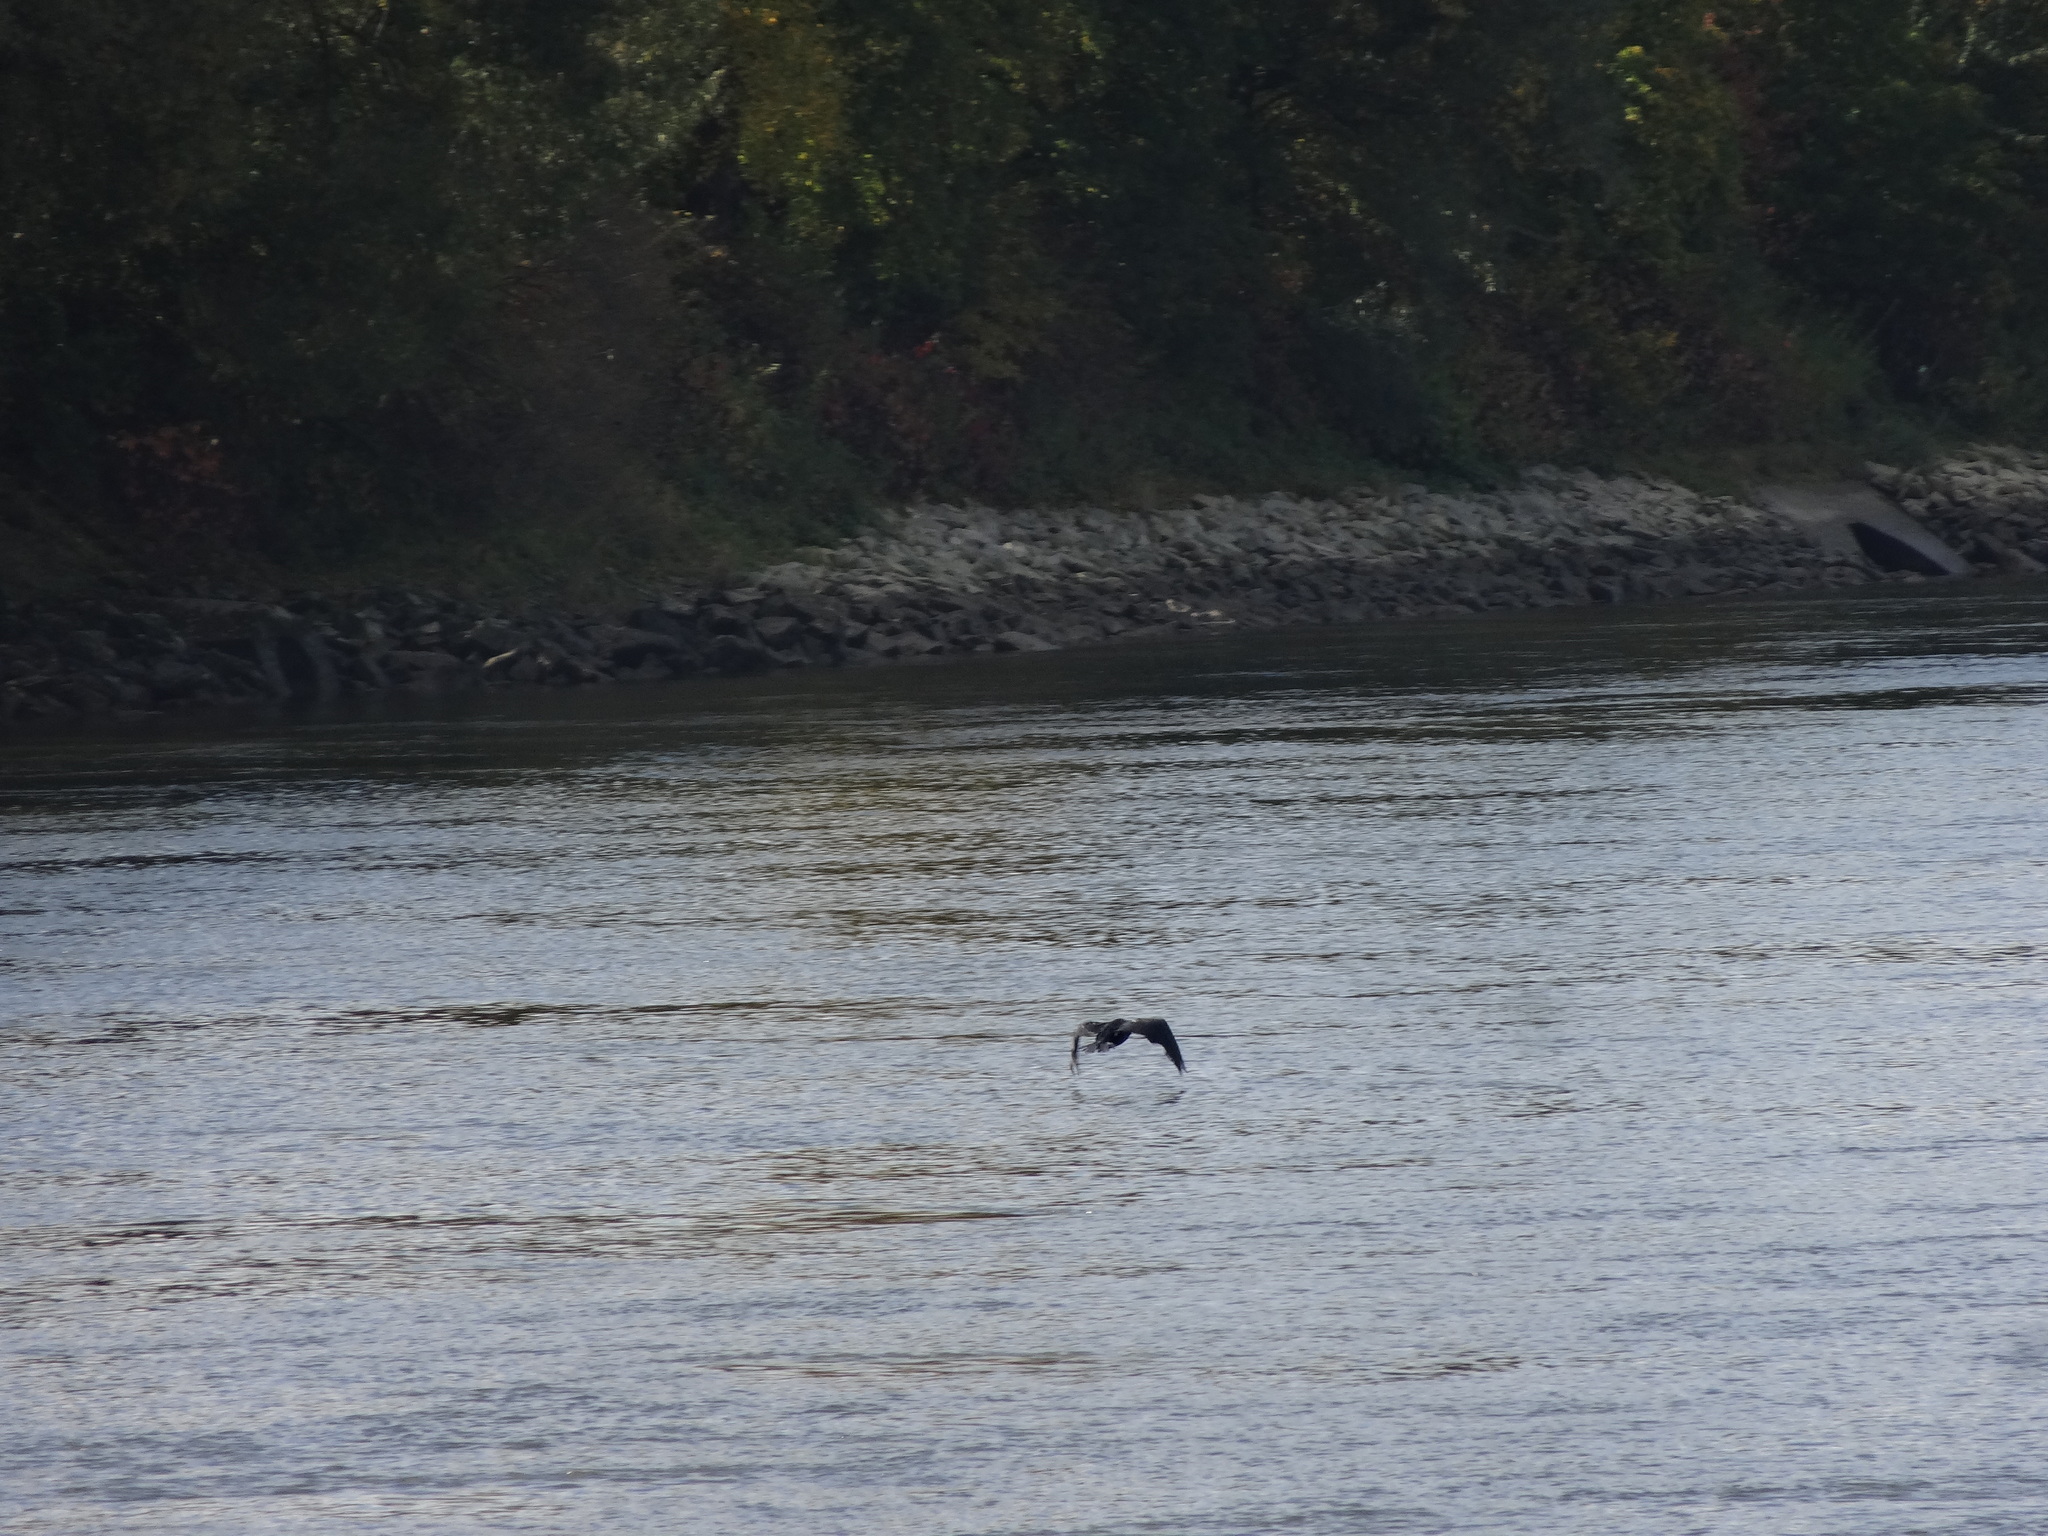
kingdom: Animalia
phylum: Chordata
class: Aves
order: Suliformes
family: Phalacrocoracidae
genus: Phalacrocorax
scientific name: Phalacrocorax carbo
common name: Great cormorant
